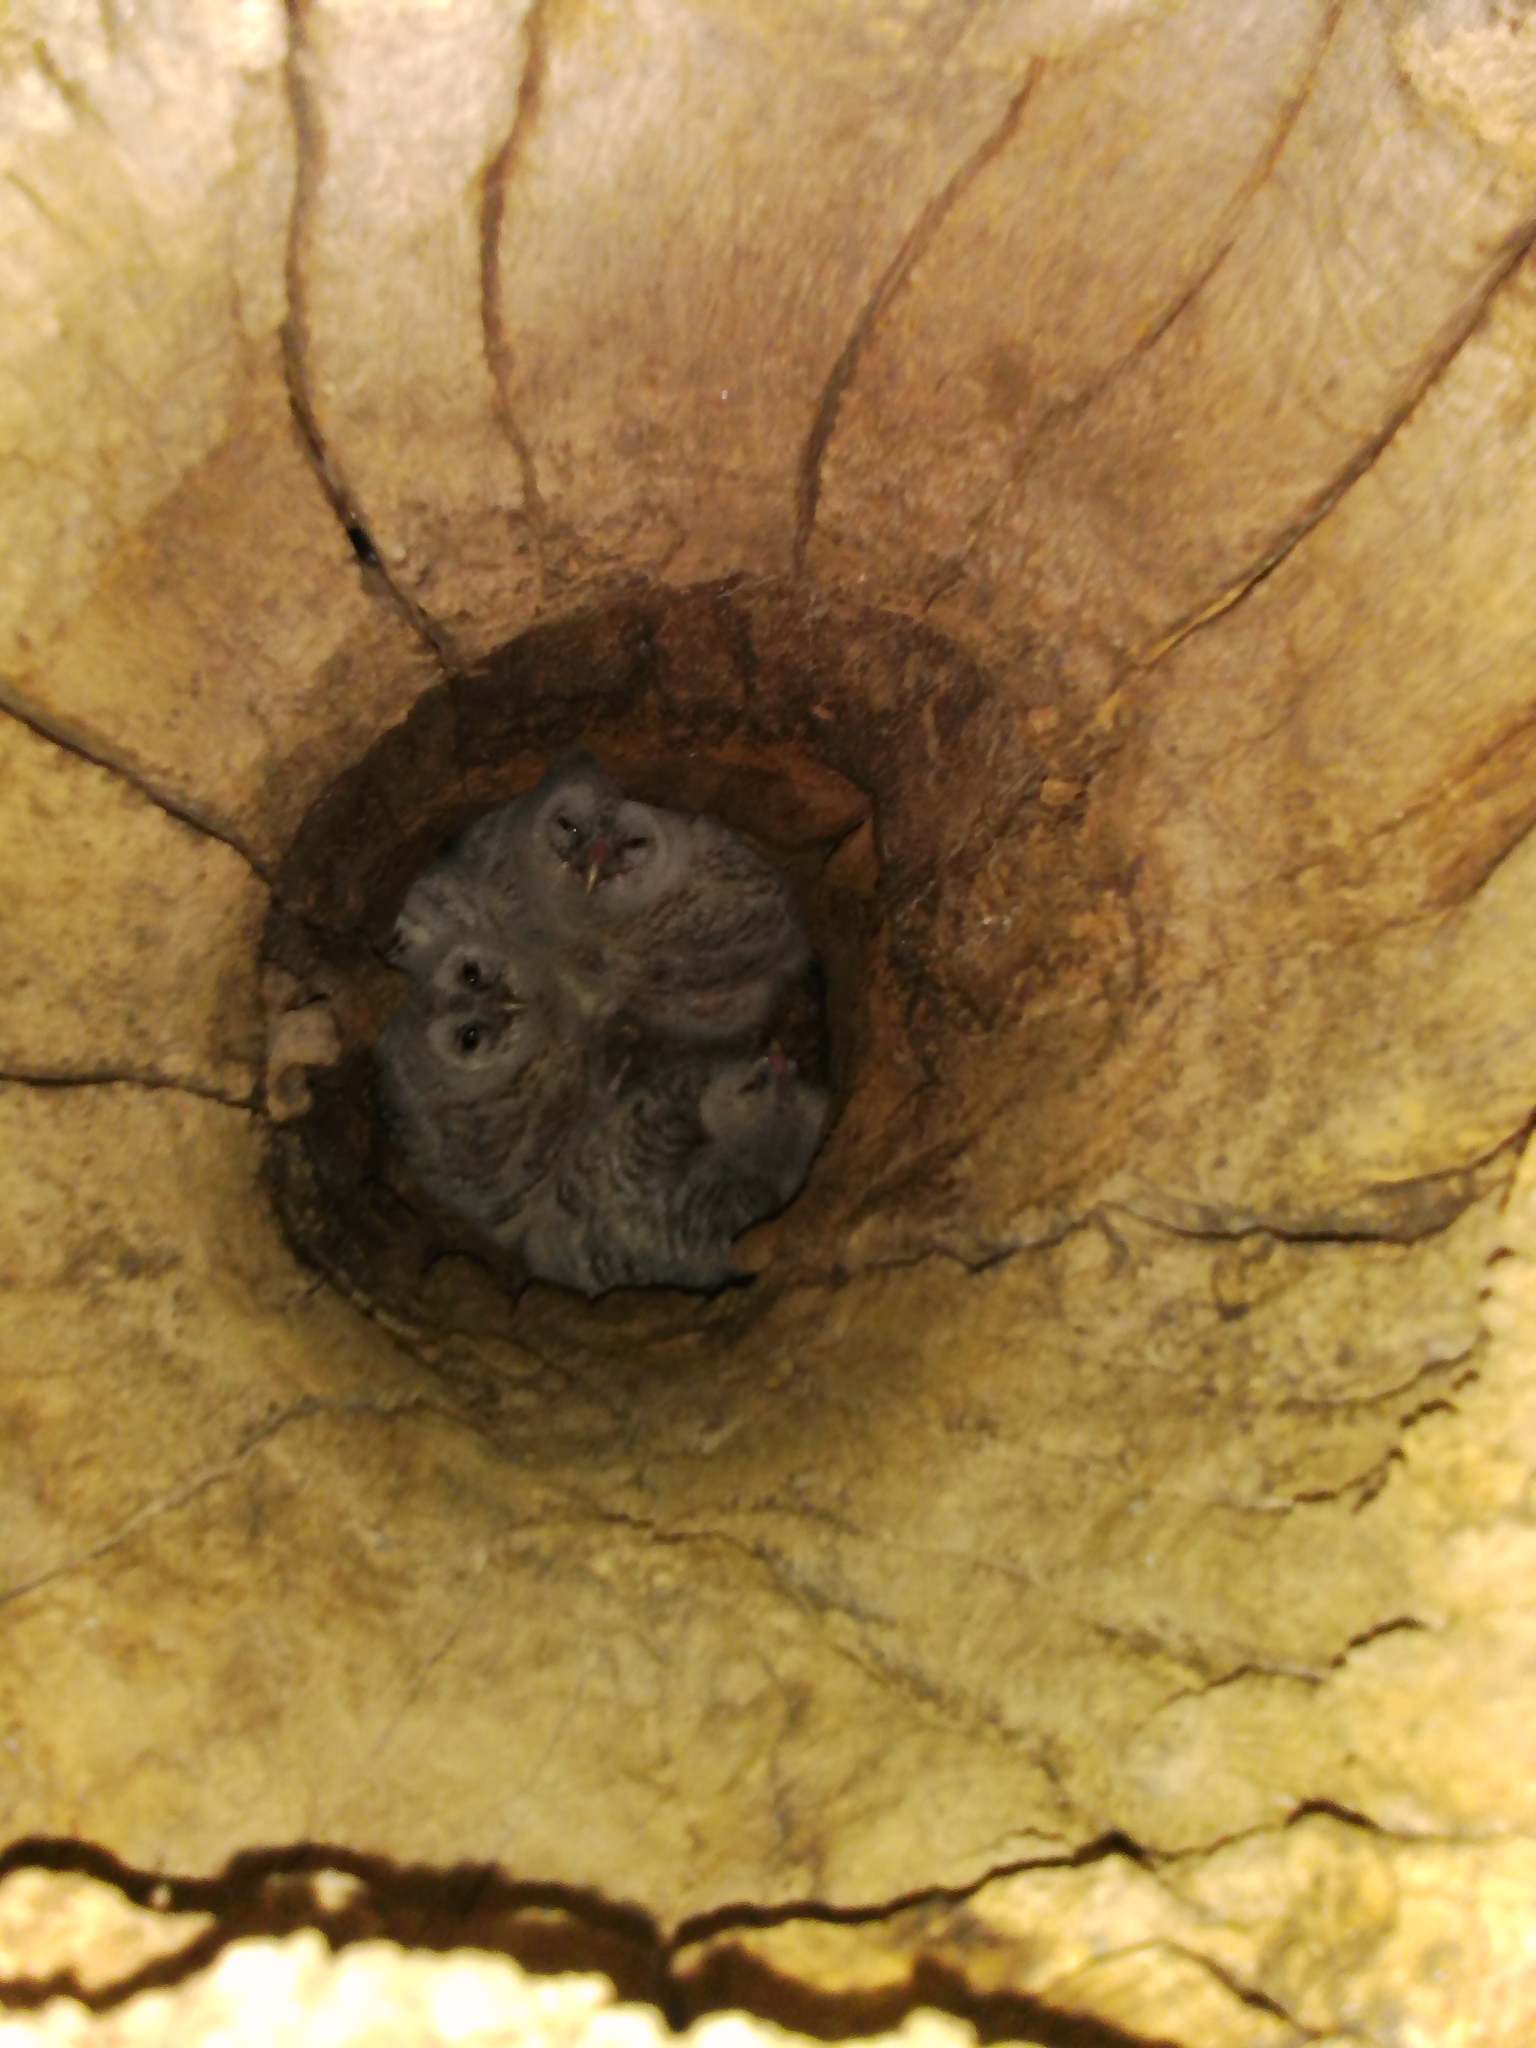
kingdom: Animalia
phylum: Chordata
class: Aves
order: Strigiformes
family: Strigidae
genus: Strix
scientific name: Strix aluco
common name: Tawny owl
